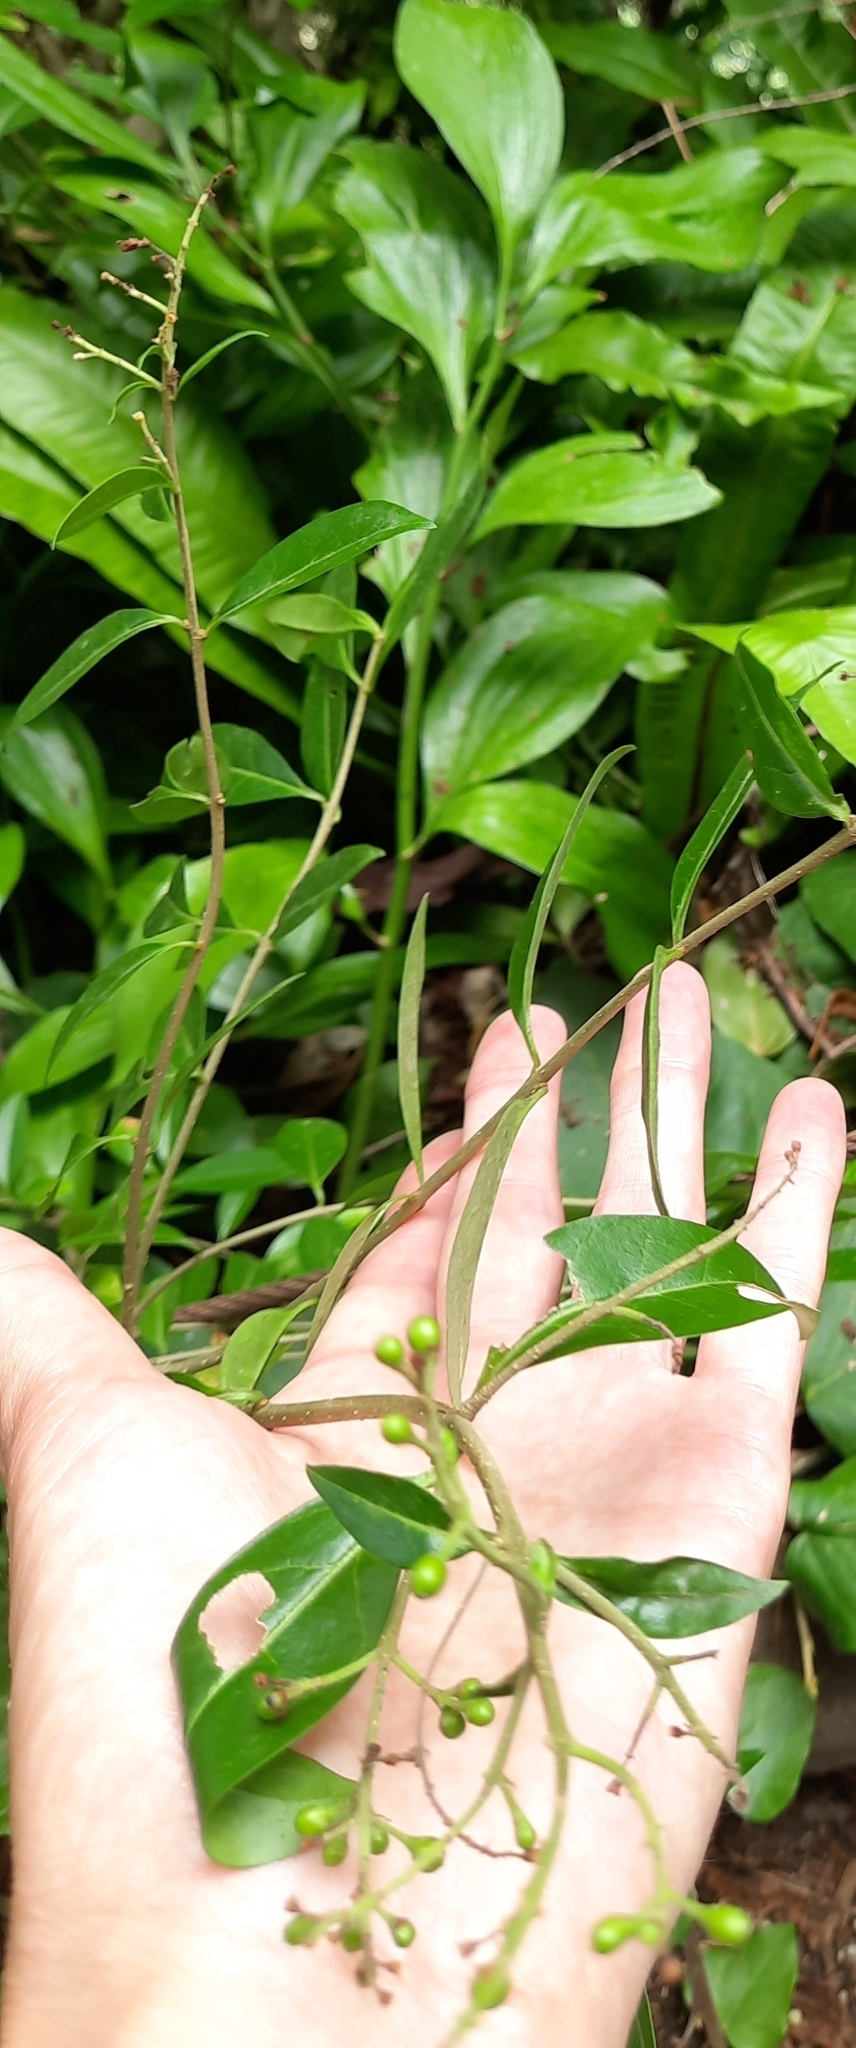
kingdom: Plantae
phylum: Tracheophyta
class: Magnoliopsida
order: Lamiales
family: Oleaceae
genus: Ligustrum
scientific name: Ligustrum vulgare
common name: Wild privet
